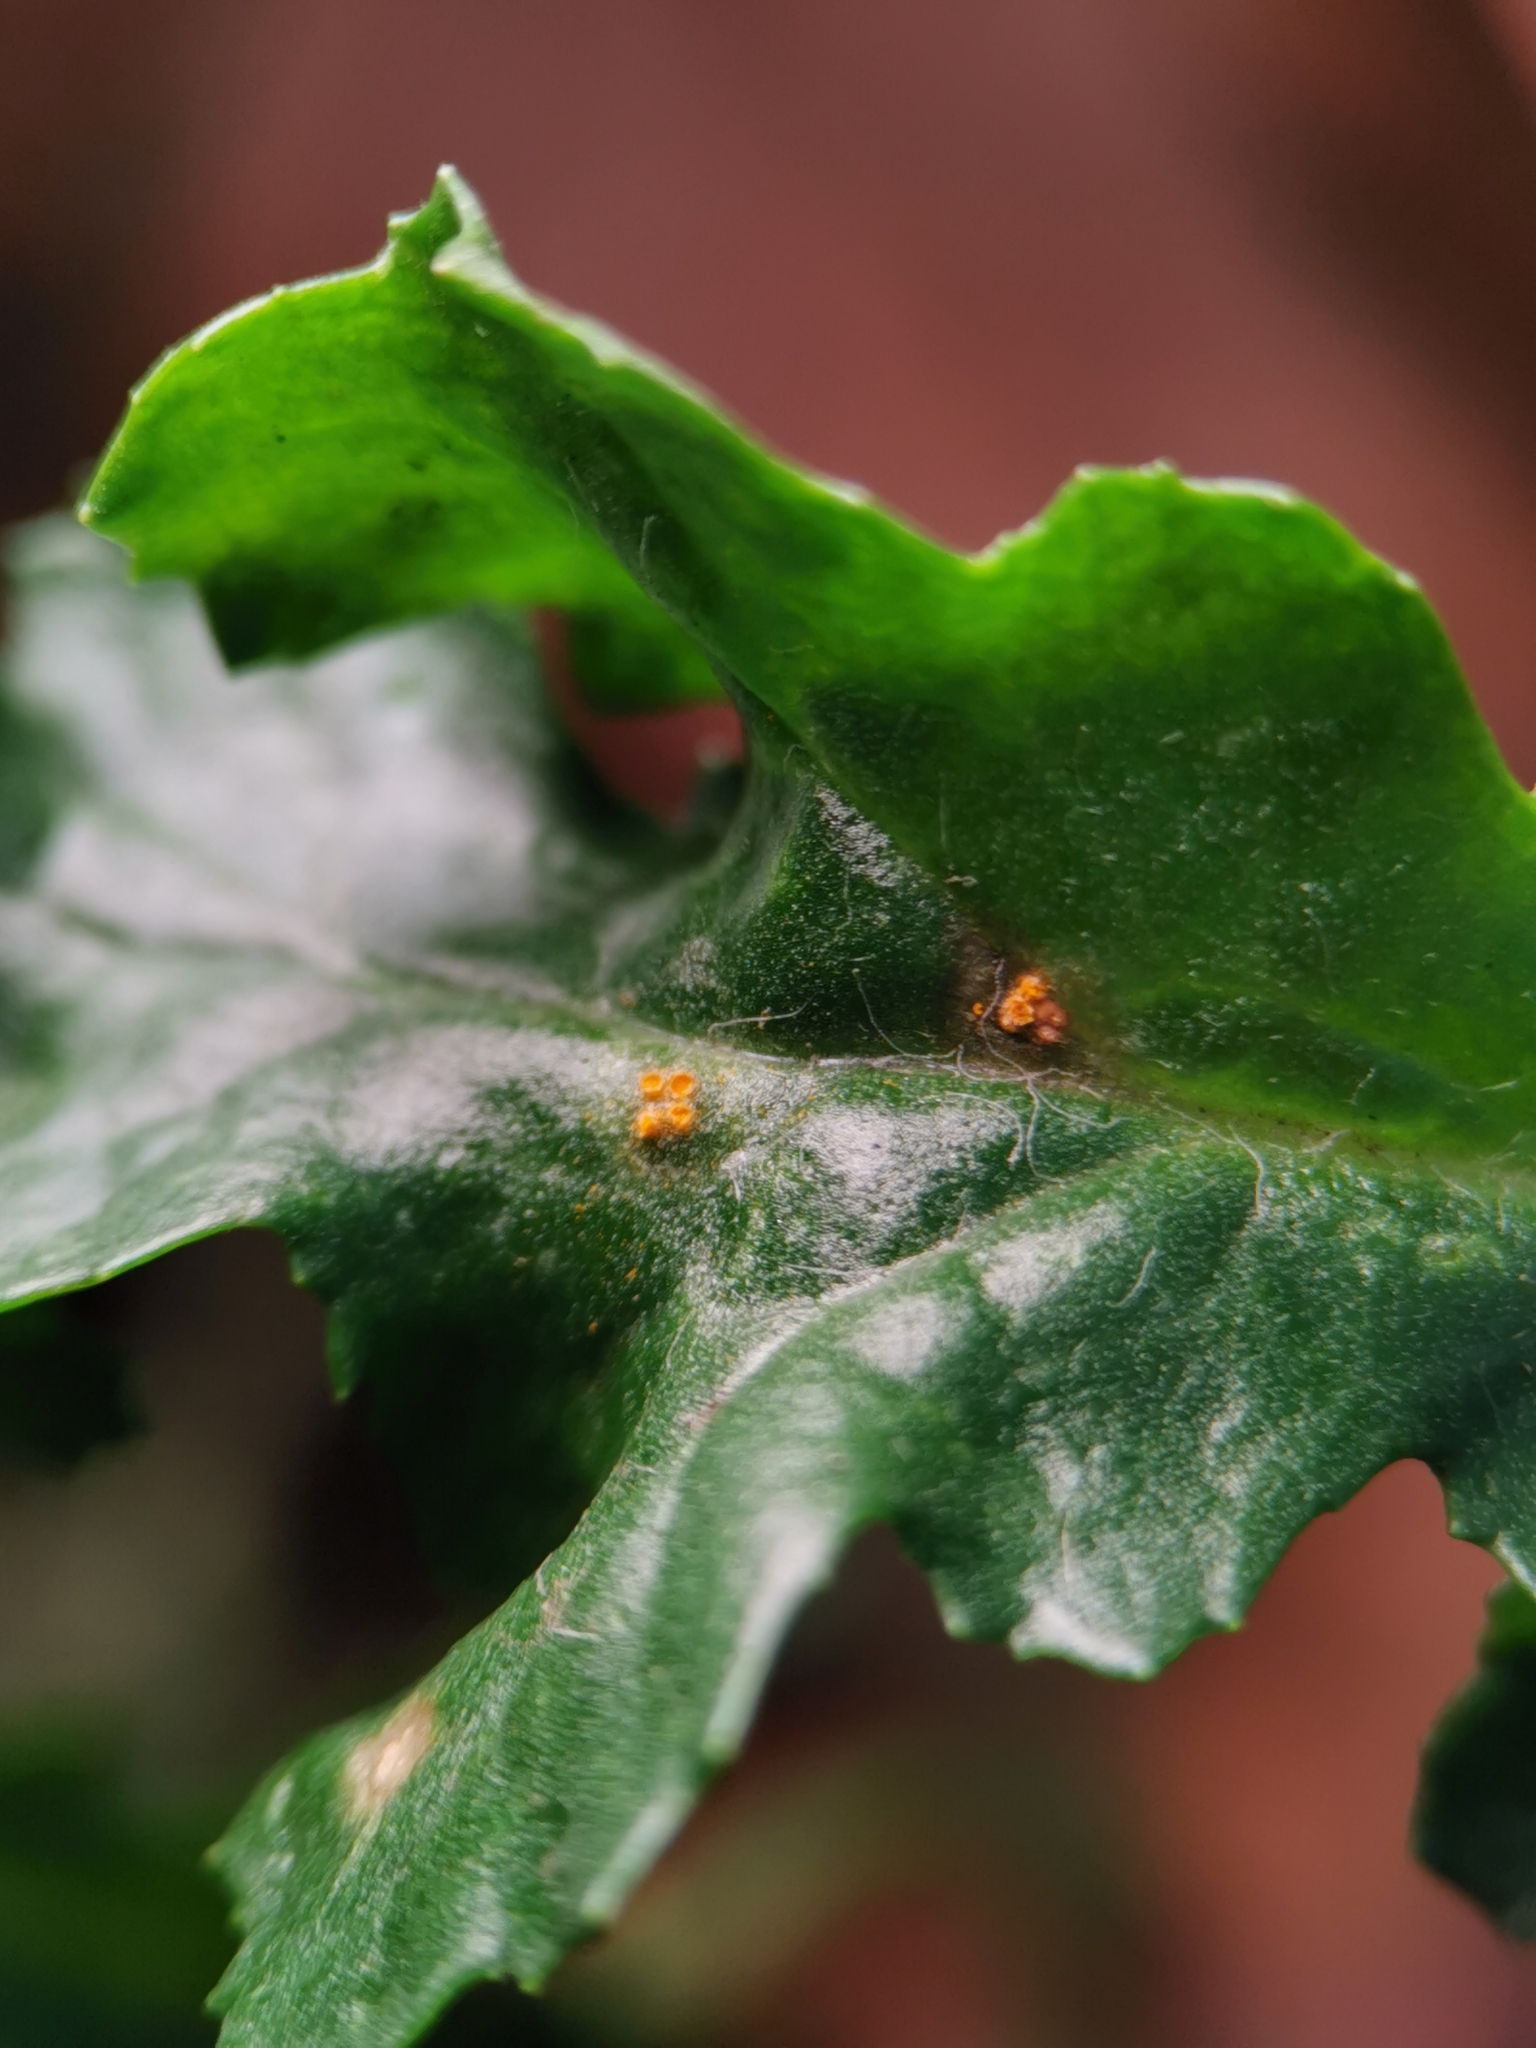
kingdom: Fungi
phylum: Basidiomycota
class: Pucciniomycetes
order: Pucciniales
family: Pucciniaceae
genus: Puccinia
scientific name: Puccinia lagenophorae
